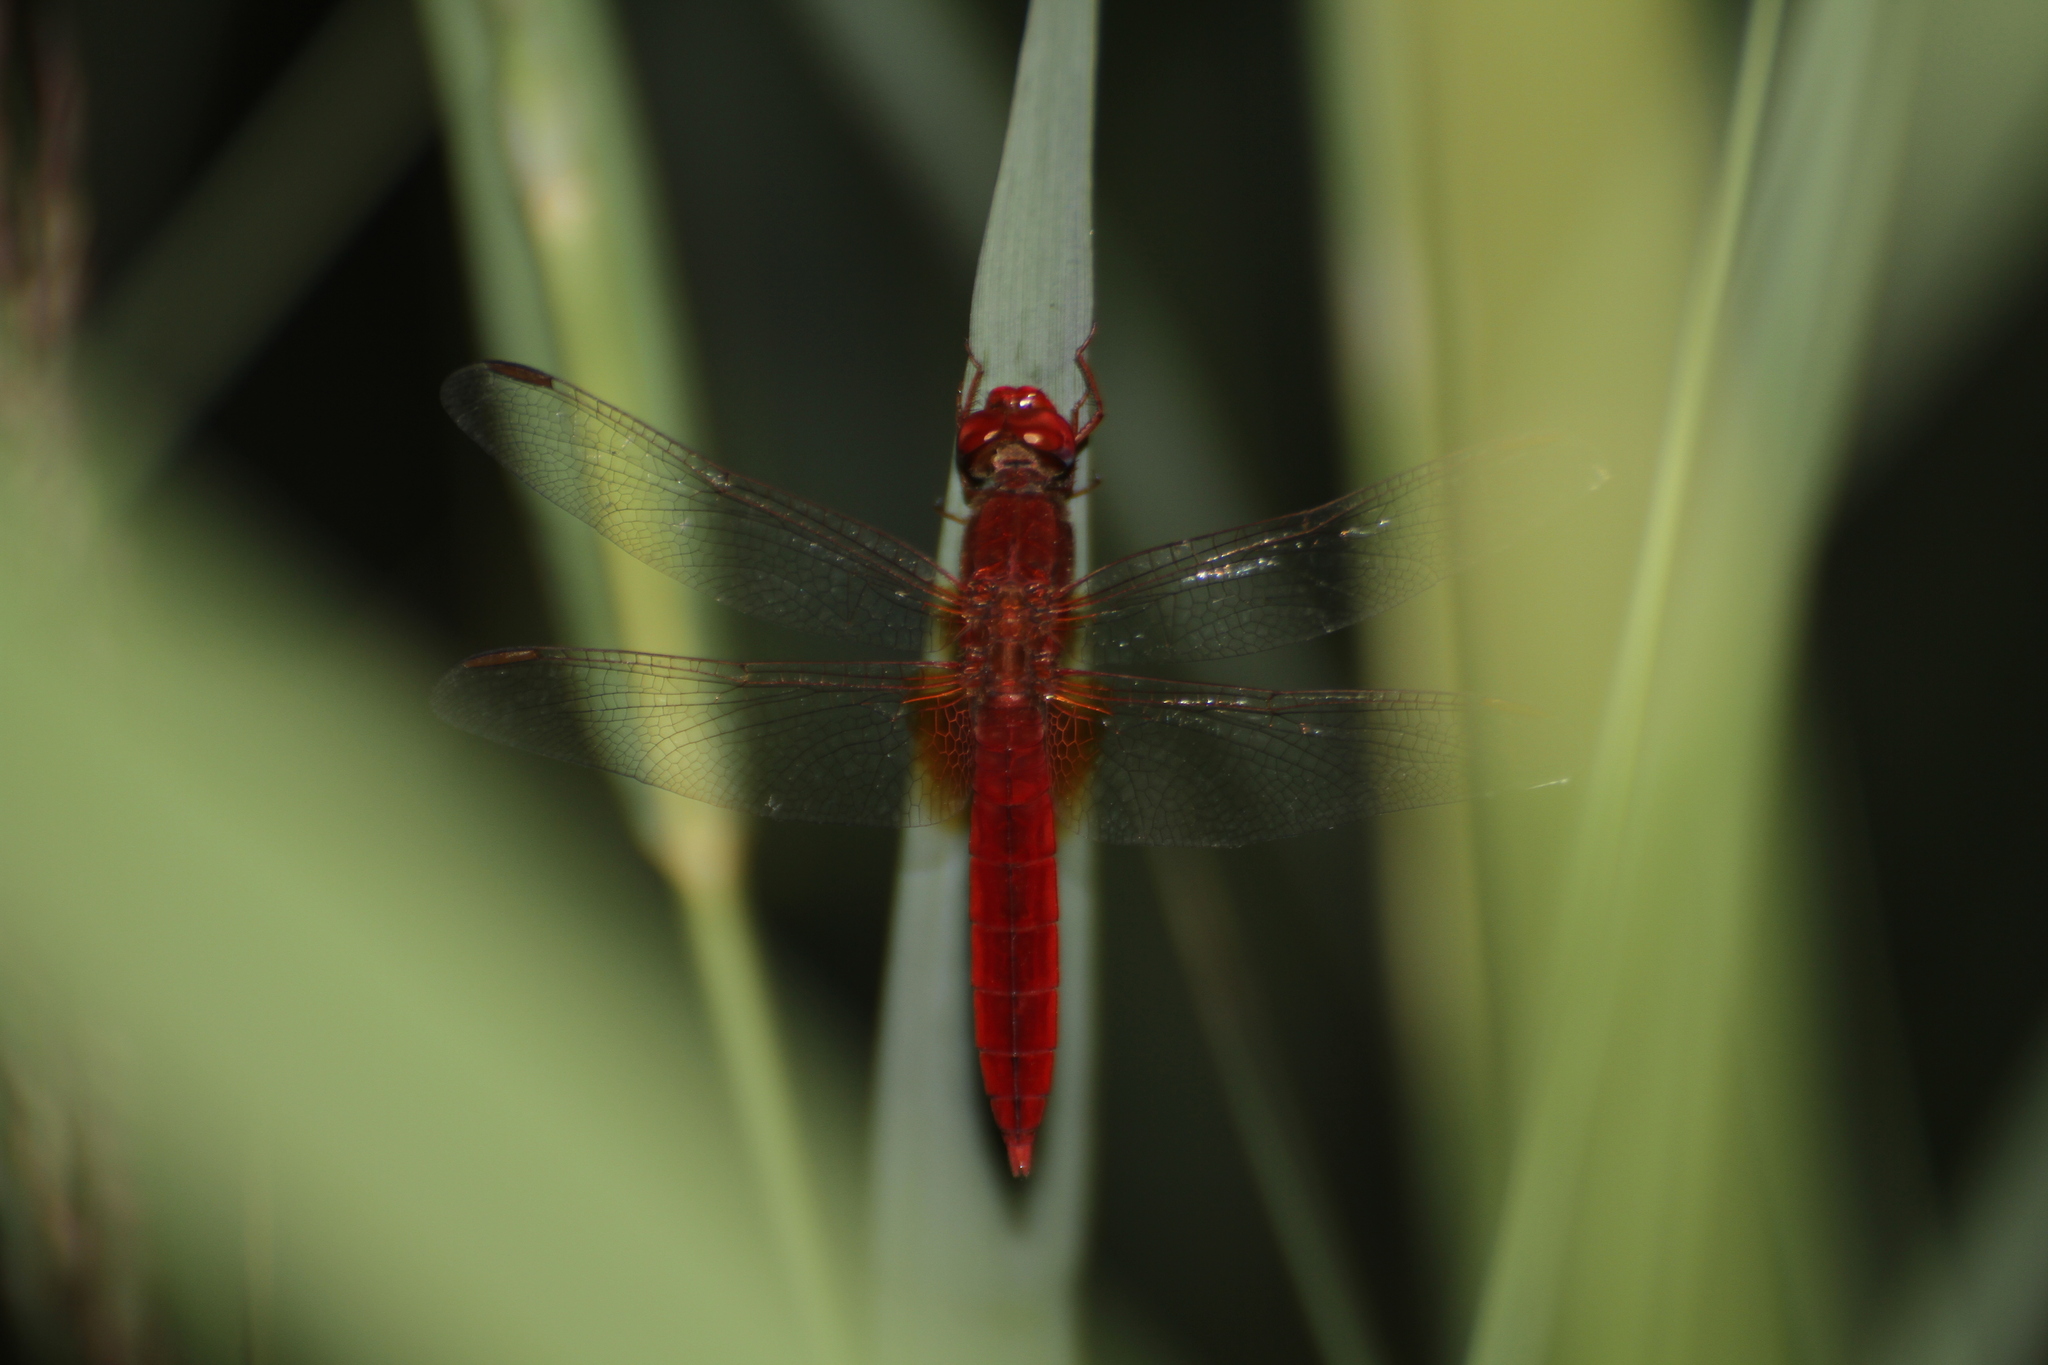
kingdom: Animalia
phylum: Arthropoda
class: Insecta
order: Odonata
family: Libellulidae
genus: Crocothemis
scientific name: Crocothemis erythraea
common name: Scarlet dragonfly
